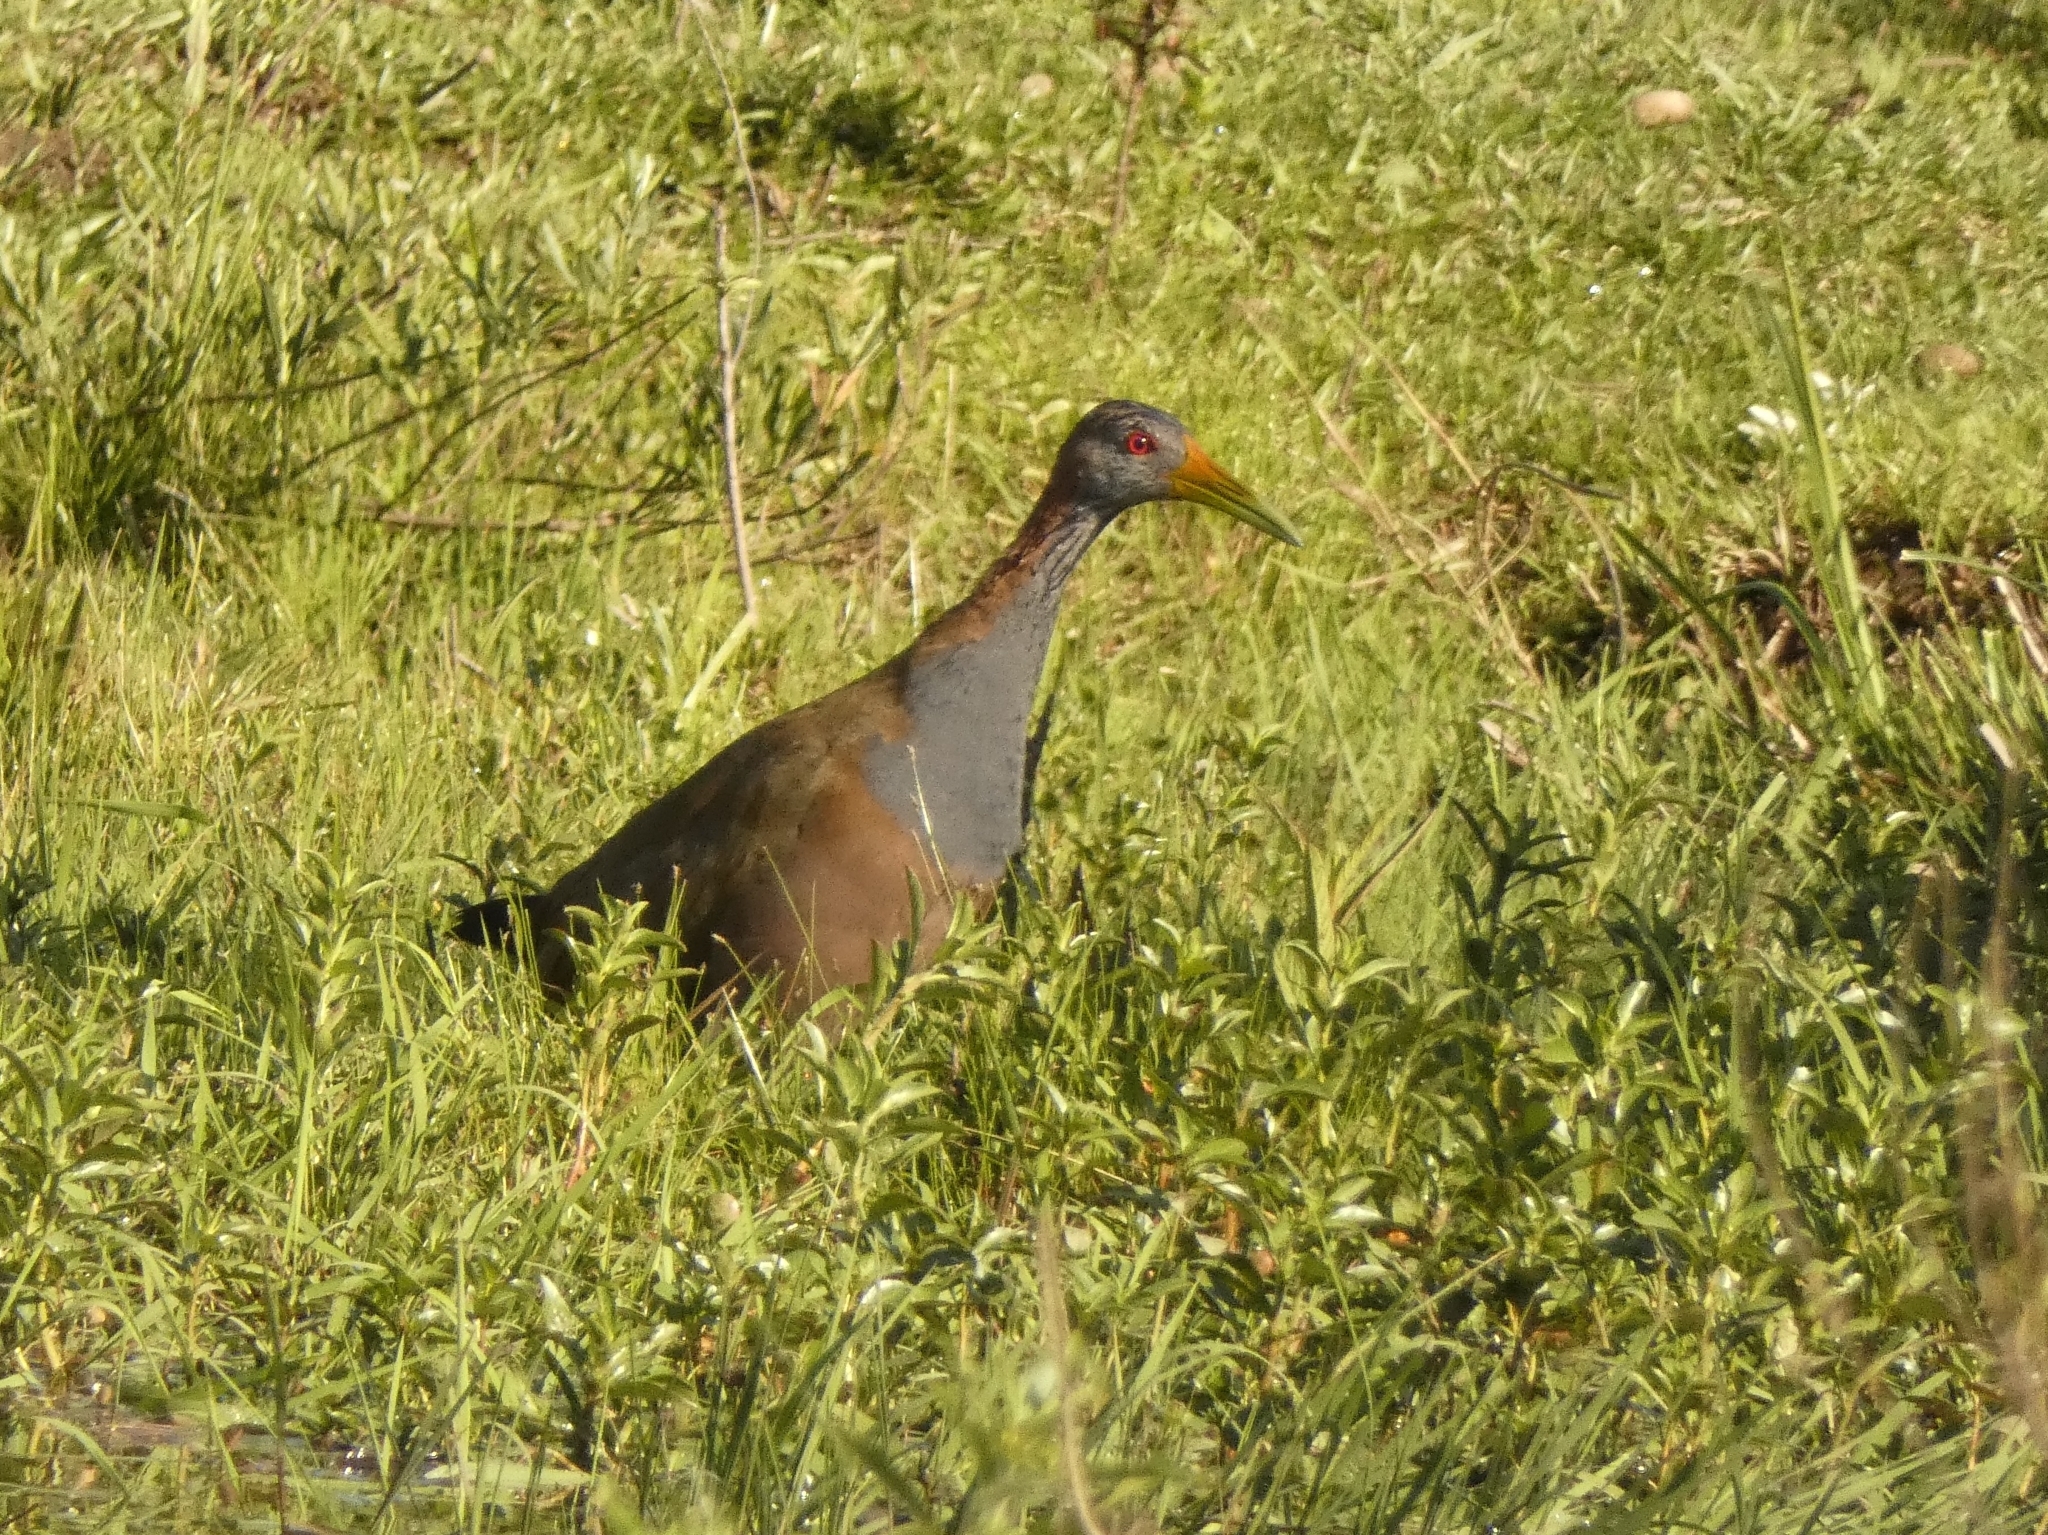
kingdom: Animalia
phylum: Chordata
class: Aves
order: Gruiformes
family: Rallidae
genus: Aramides
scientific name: Aramides ypecaha
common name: Giant wood rail
